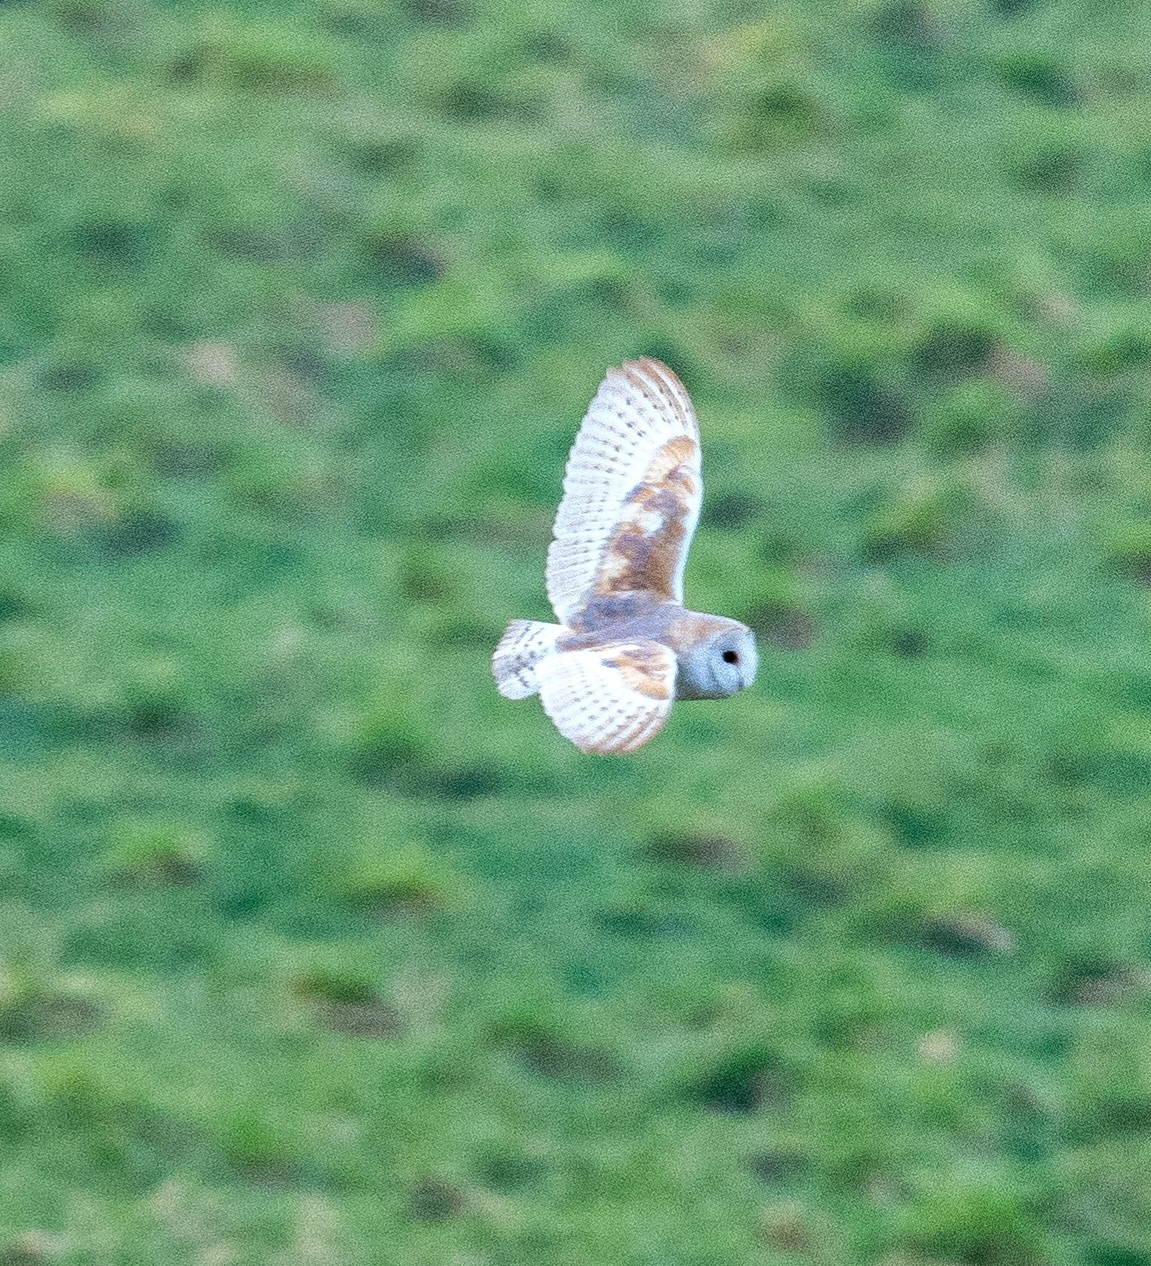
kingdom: Animalia
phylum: Chordata
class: Aves
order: Strigiformes
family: Tytonidae
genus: Tyto
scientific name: Tyto alba
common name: Barn owl
